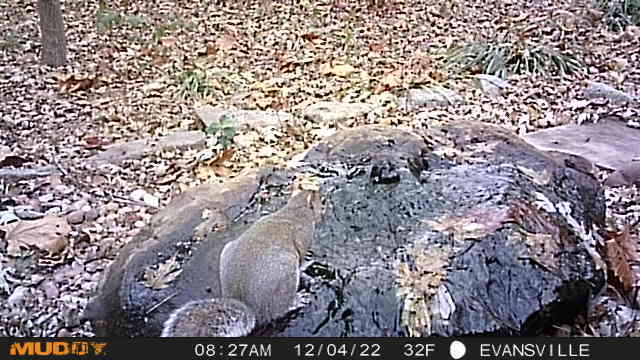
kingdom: Animalia
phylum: Chordata
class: Mammalia
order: Rodentia
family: Sciuridae
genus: Sciurus
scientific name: Sciurus carolinensis
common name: Eastern gray squirrel
